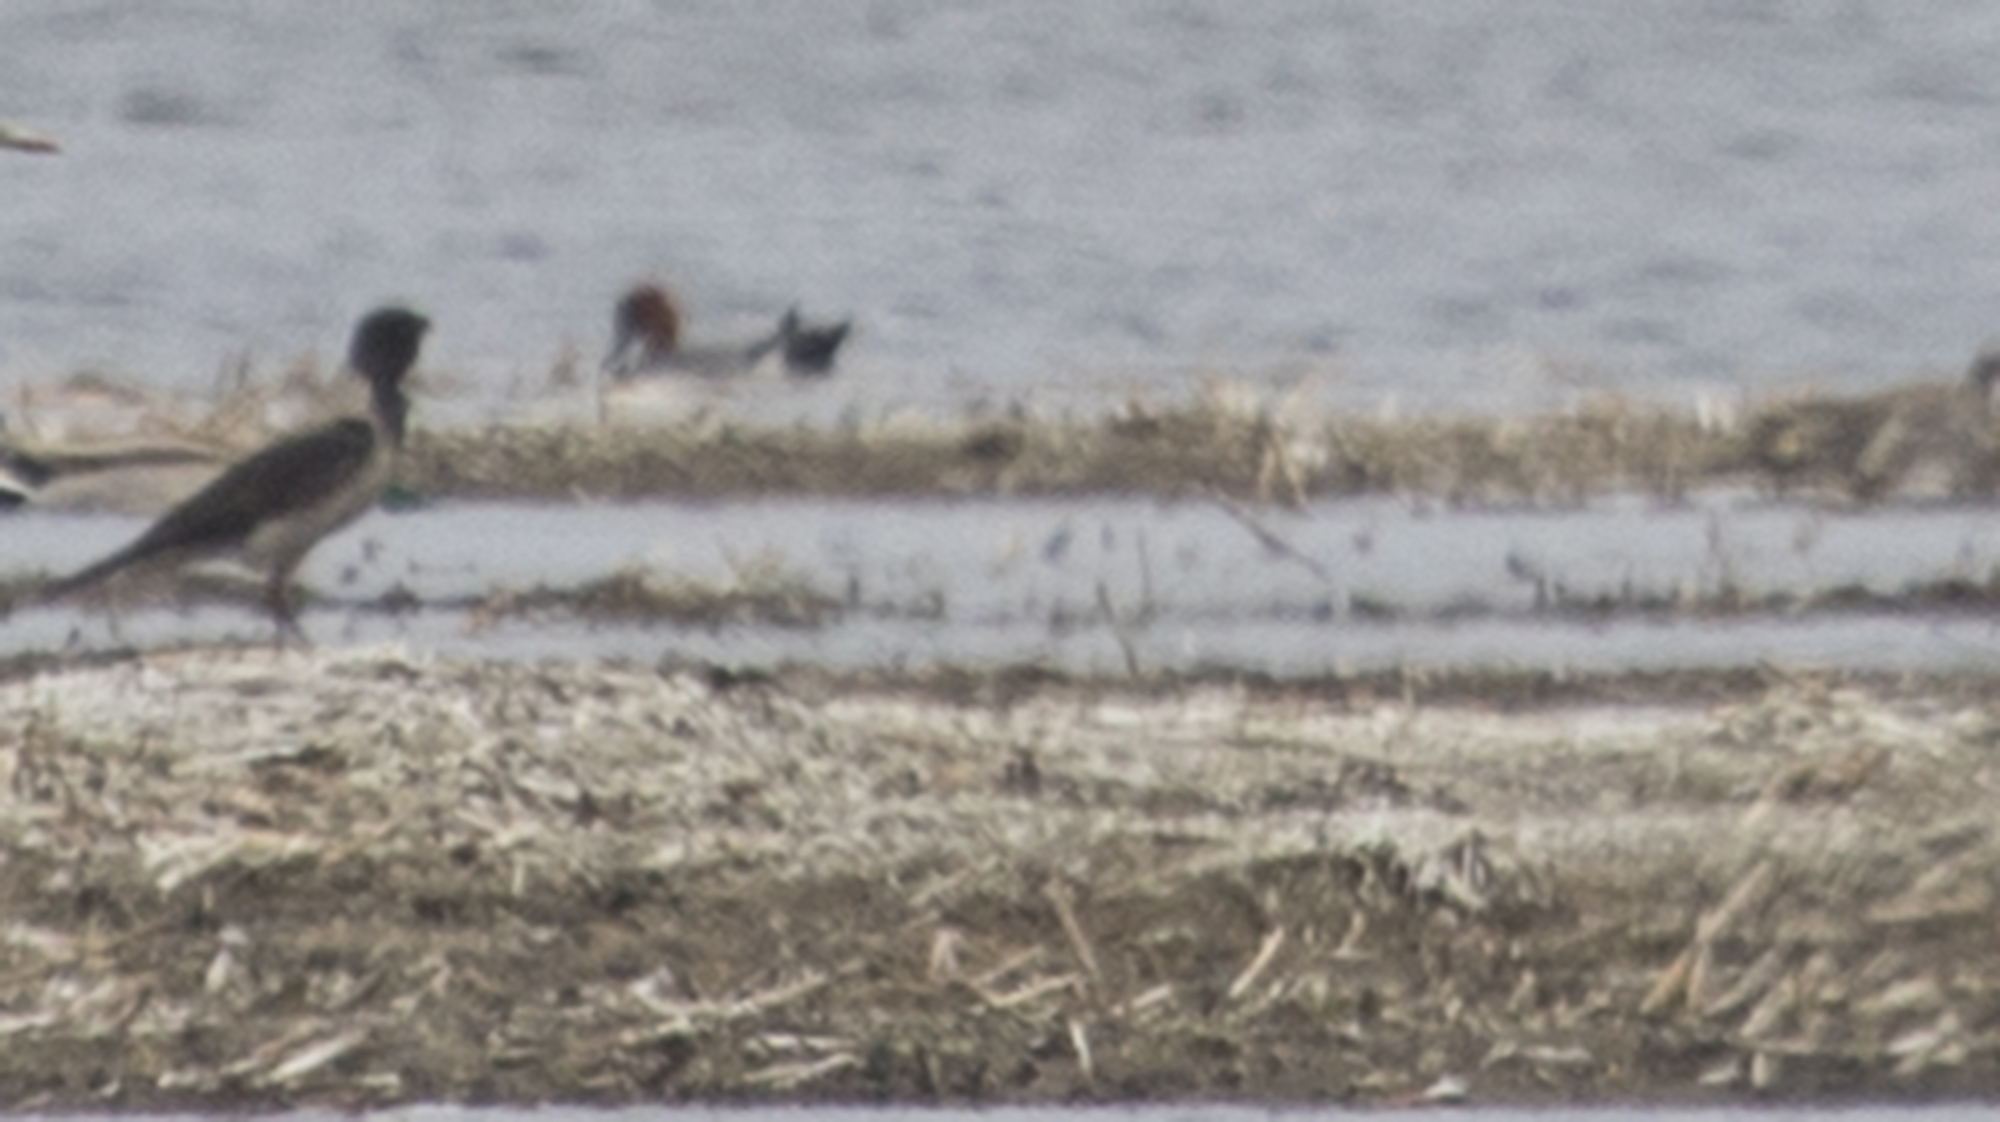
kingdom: Animalia
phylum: Chordata
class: Aves
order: Passeriformes
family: Corvidae
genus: Corvus
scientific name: Corvus cornix
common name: Hooded crow
